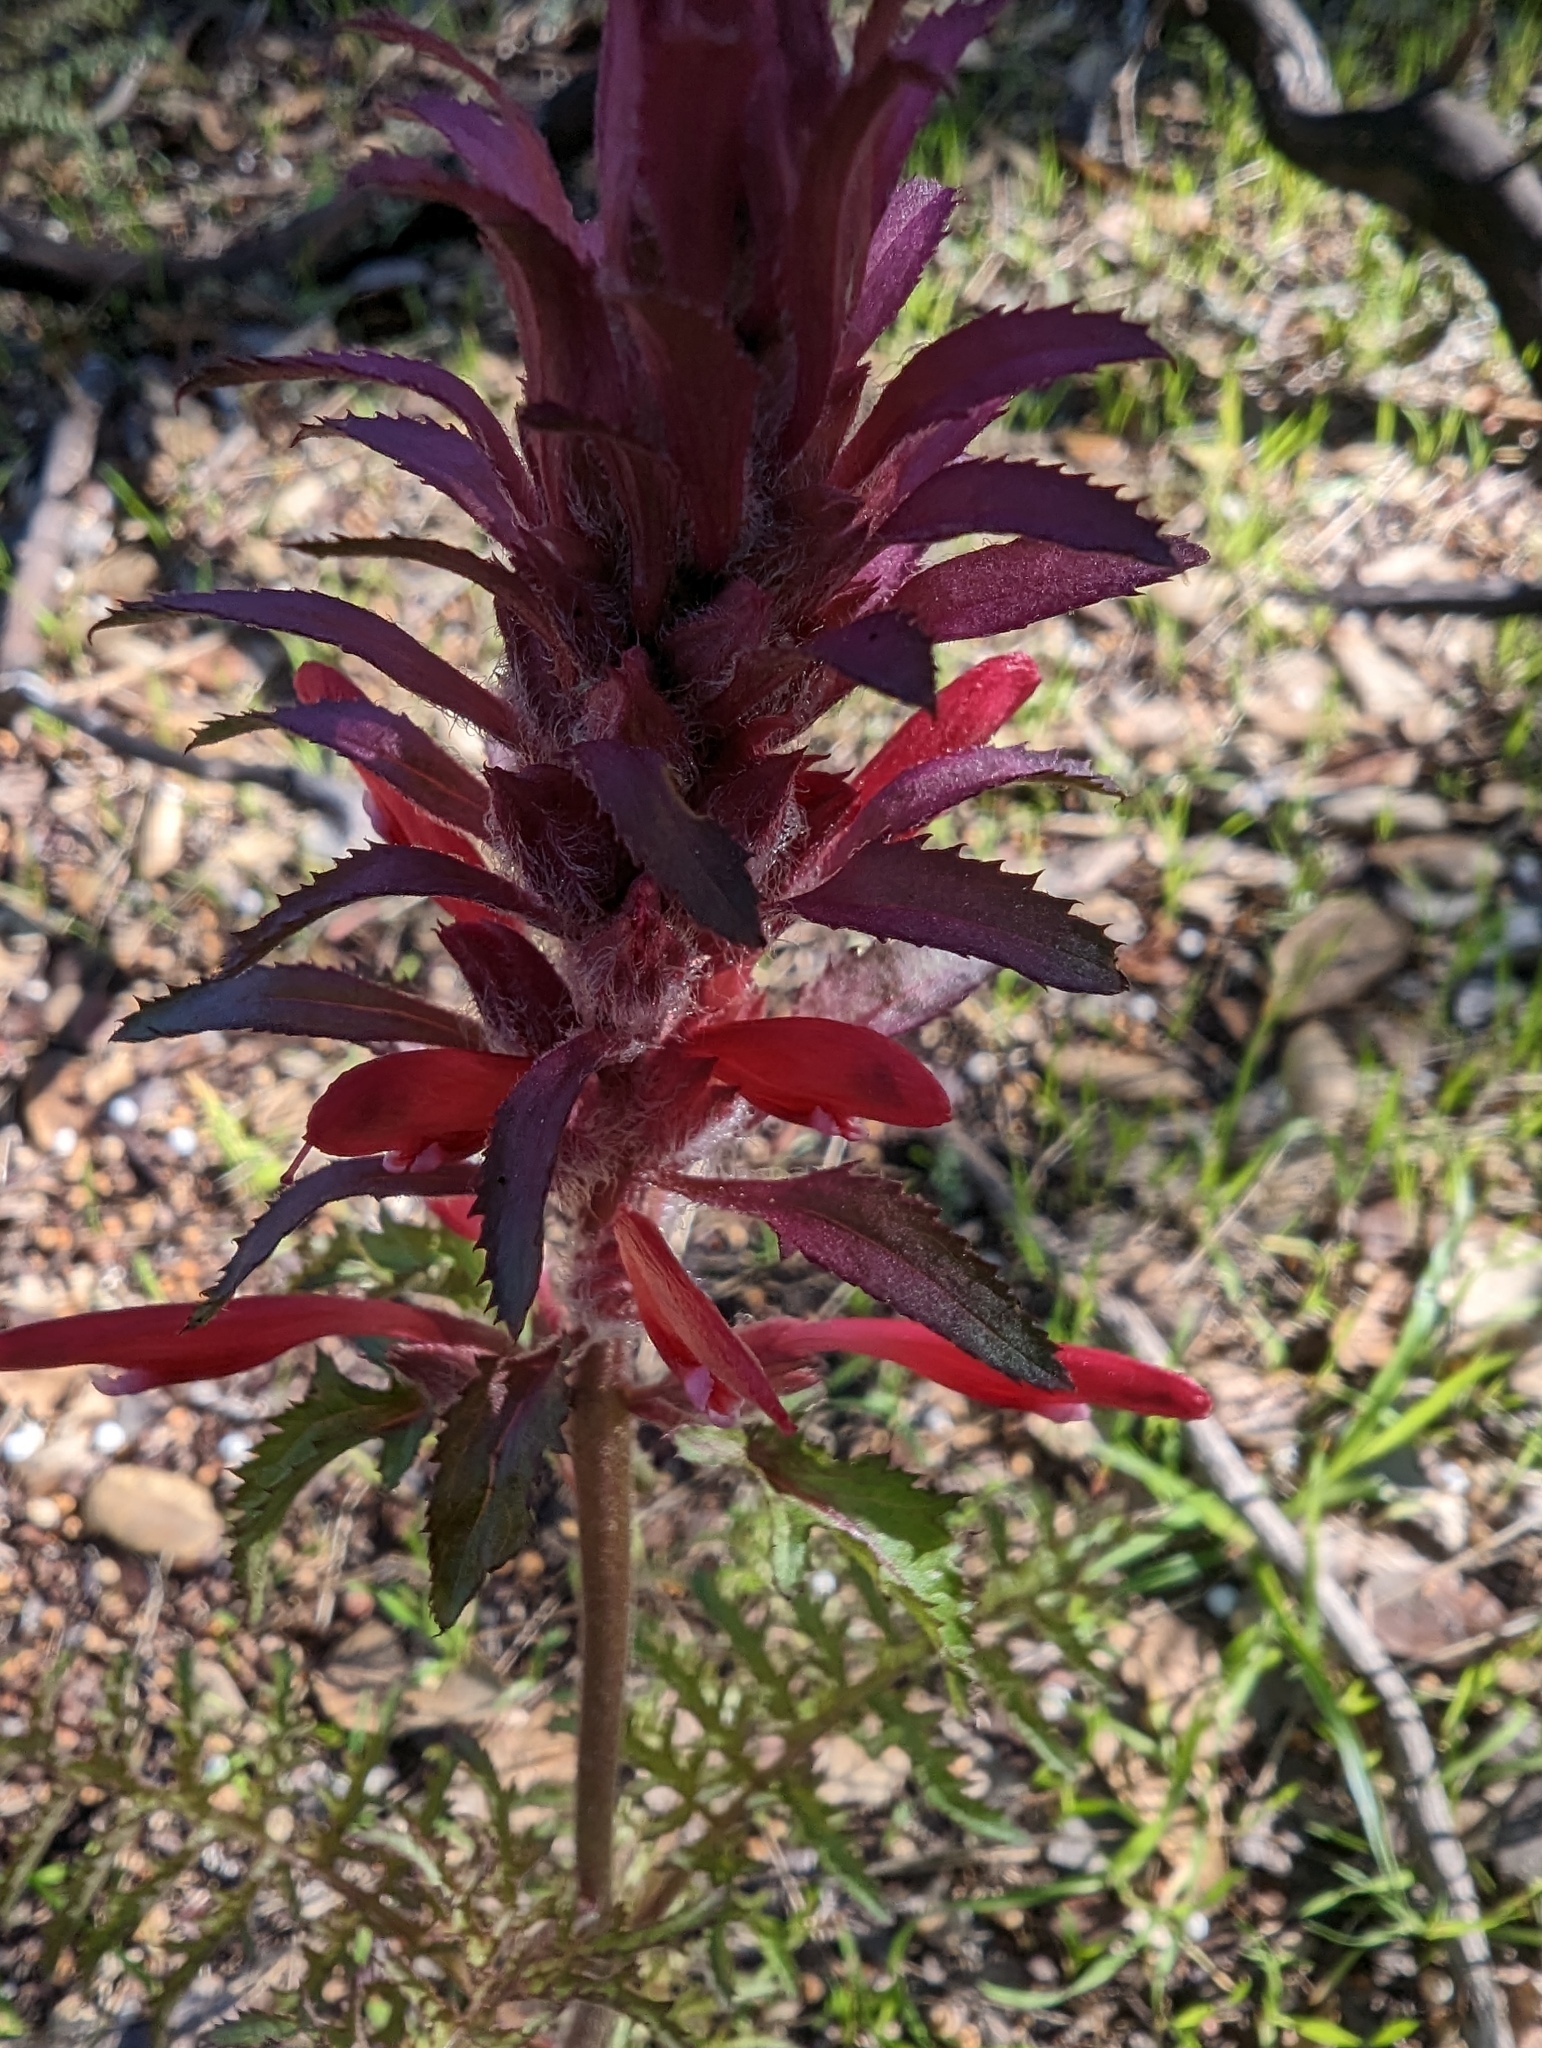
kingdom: Plantae
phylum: Tracheophyta
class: Magnoliopsida
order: Lamiales
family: Orobanchaceae
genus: Pedicularis
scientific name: Pedicularis densiflora
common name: Indian warrior
